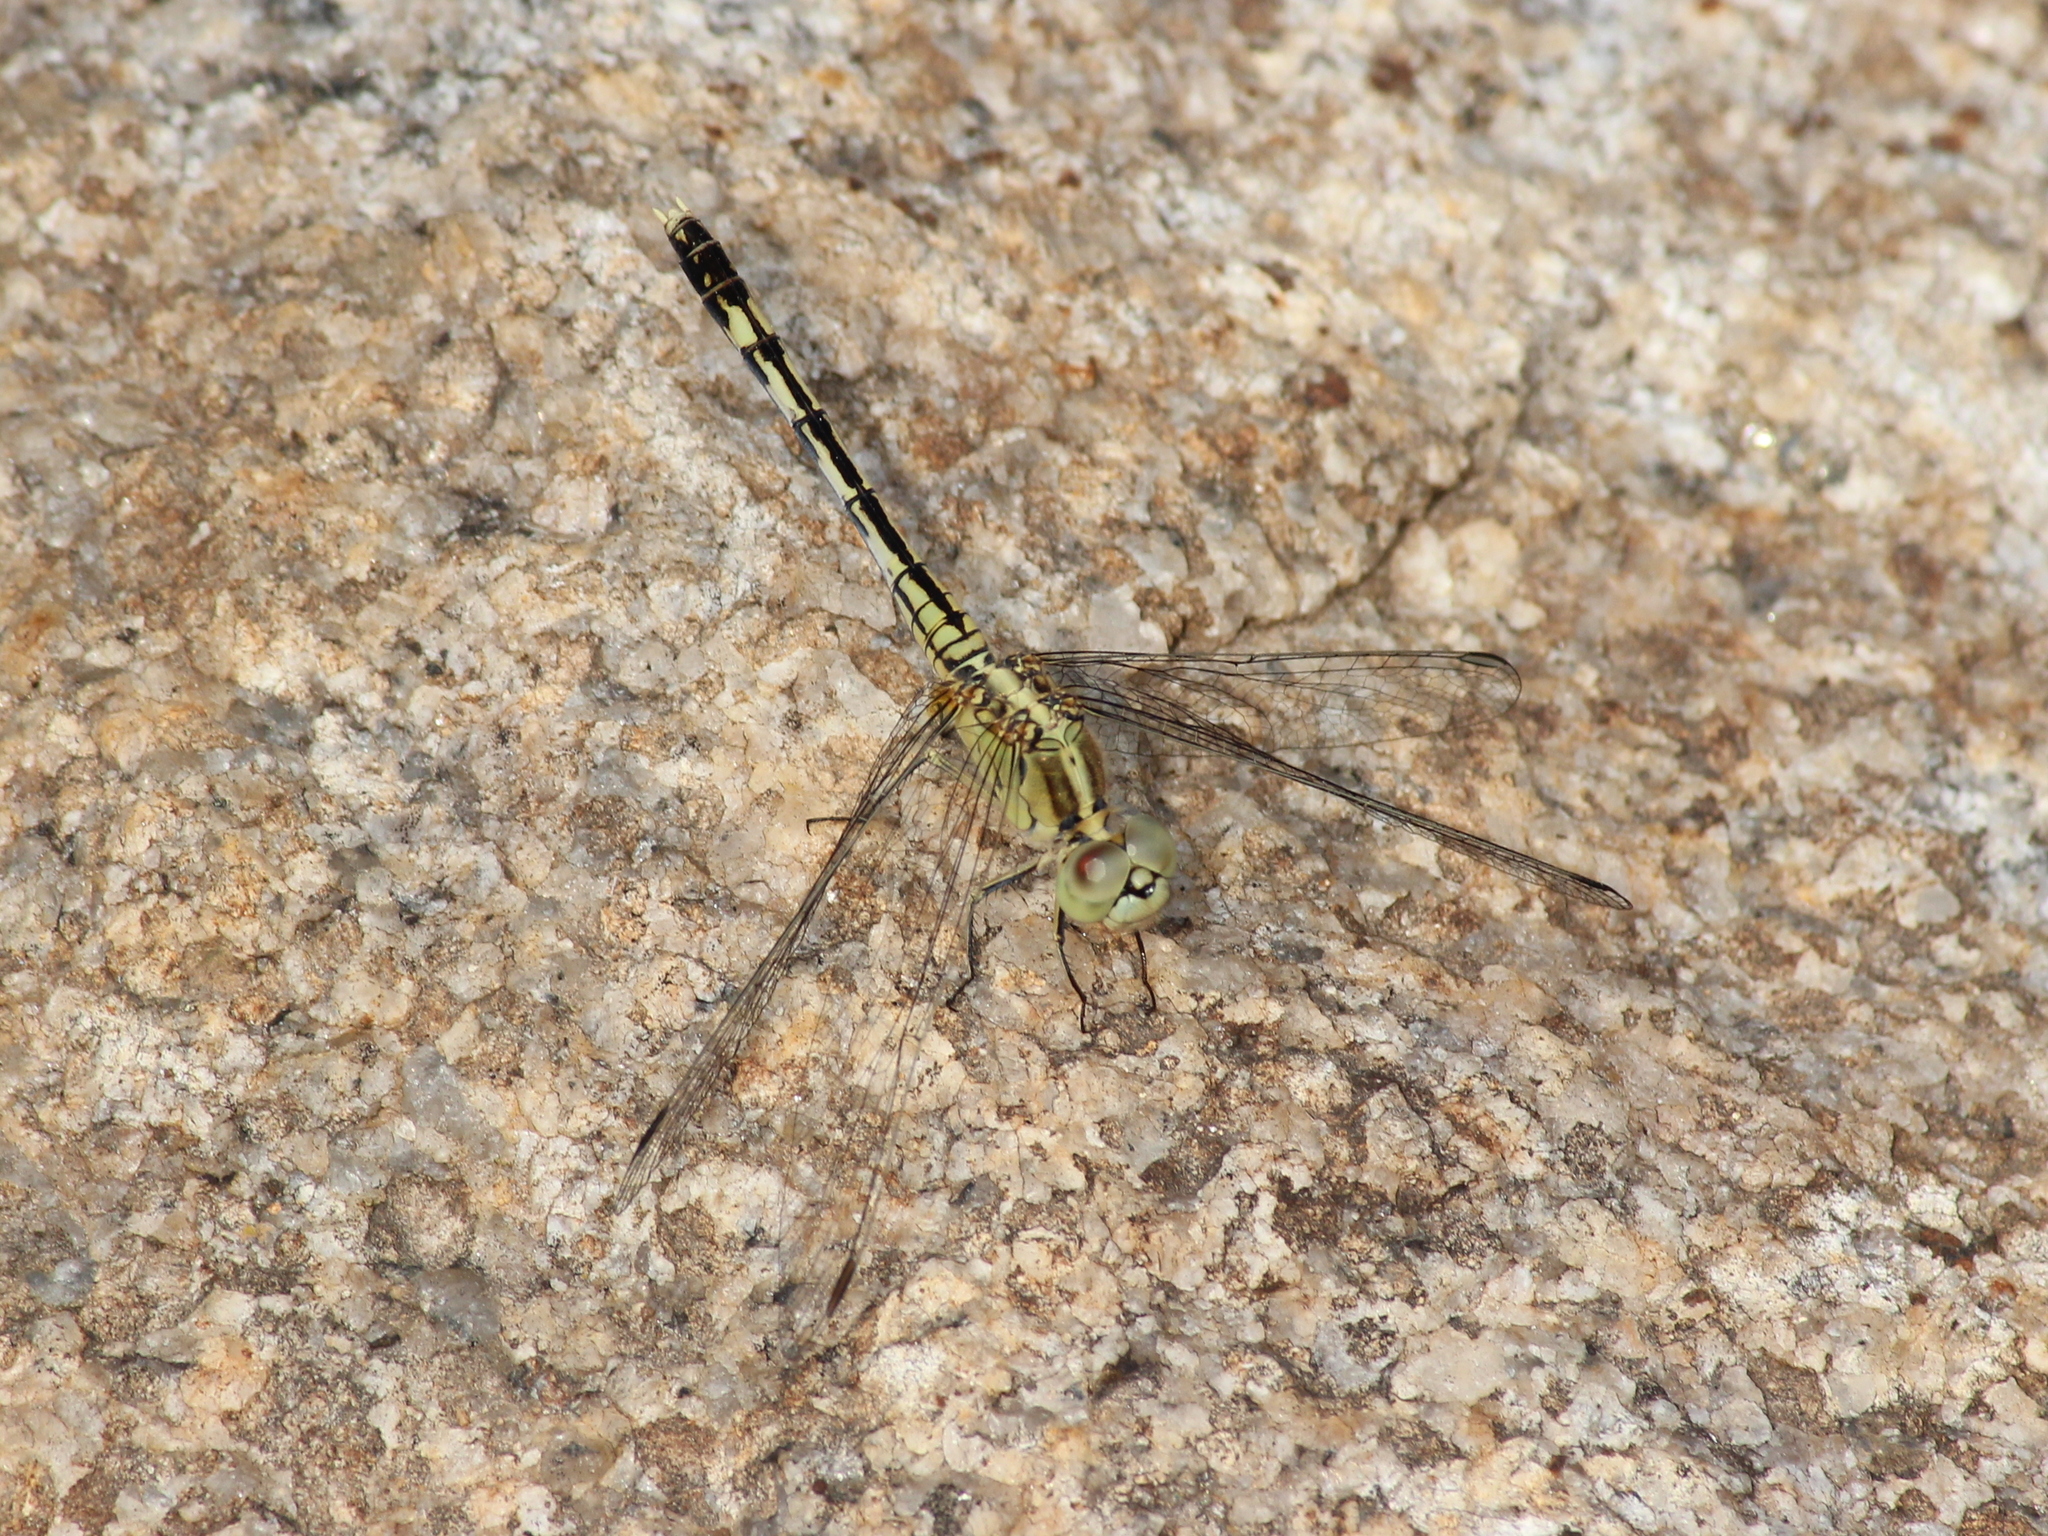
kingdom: Animalia
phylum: Arthropoda
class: Insecta
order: Odonata
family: Libellulidae
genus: Diplacodes
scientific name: Diplacodes trivialis
